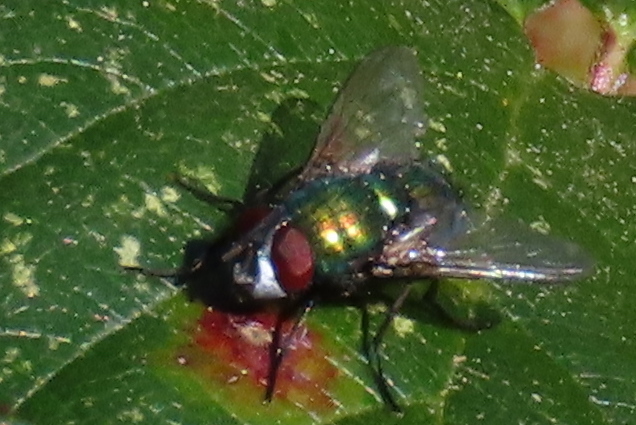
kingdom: Animalia
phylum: Arthropoda
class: Insecta
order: Diptera
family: Calliphoridae
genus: Lucilia
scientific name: Lucilia
